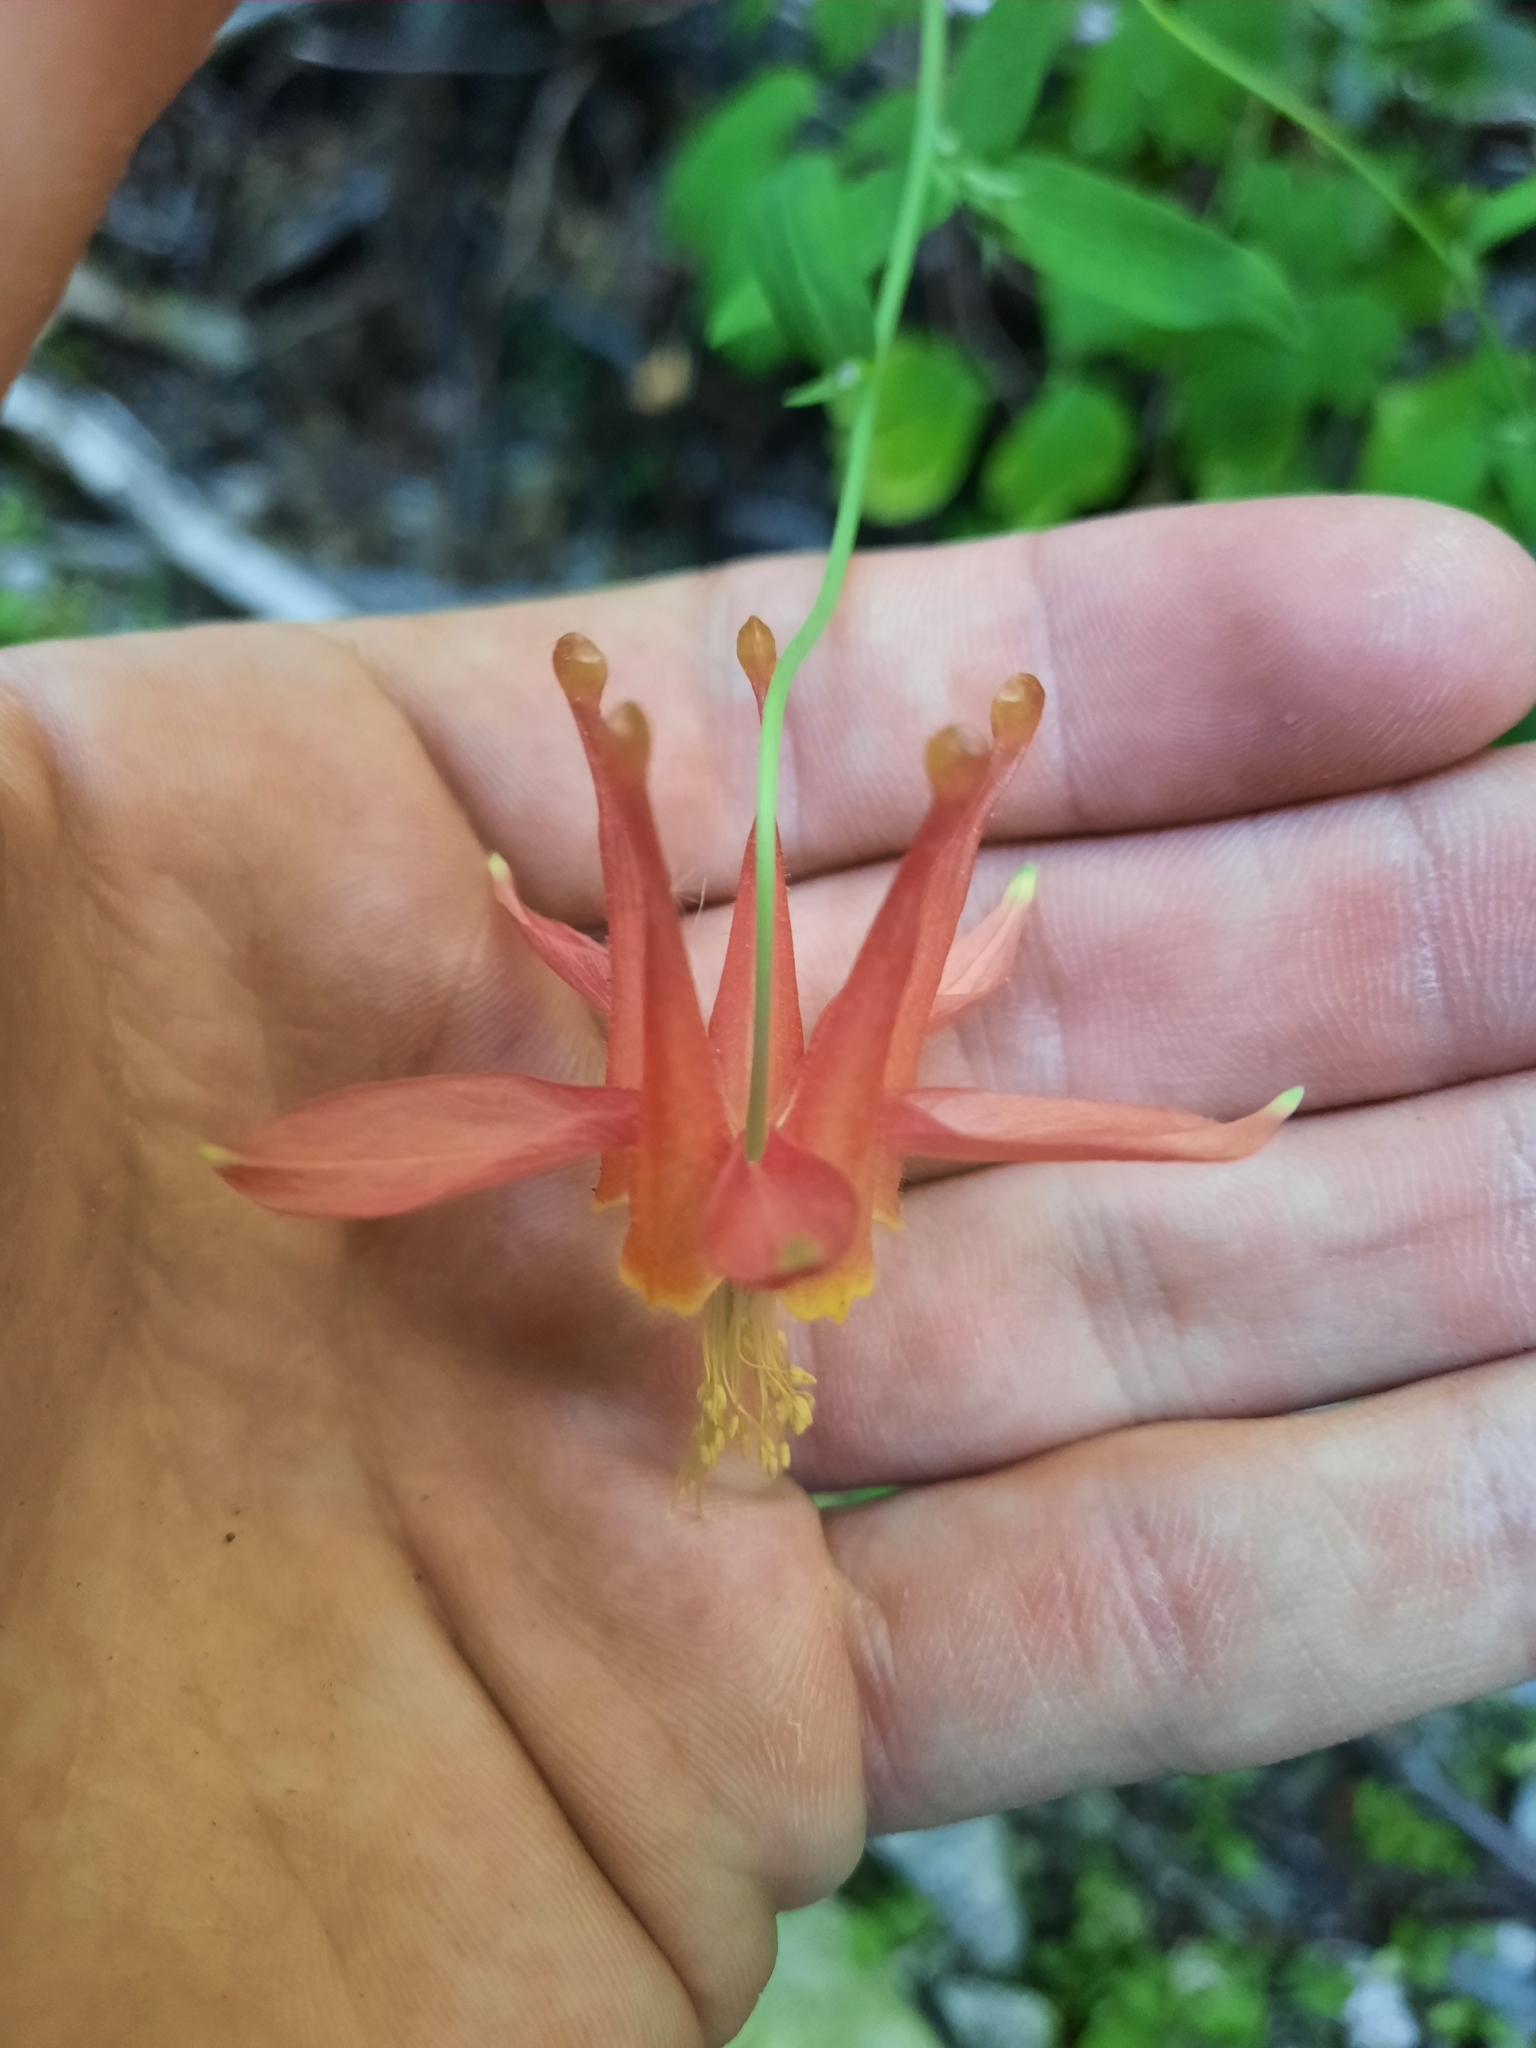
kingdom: Plantae
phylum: Tracheophyta
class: Magnoliopsida
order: Ranunculales
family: Ranunculaceae
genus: Aquilegia
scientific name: Aquilegia formosa
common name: Sitka columbine
